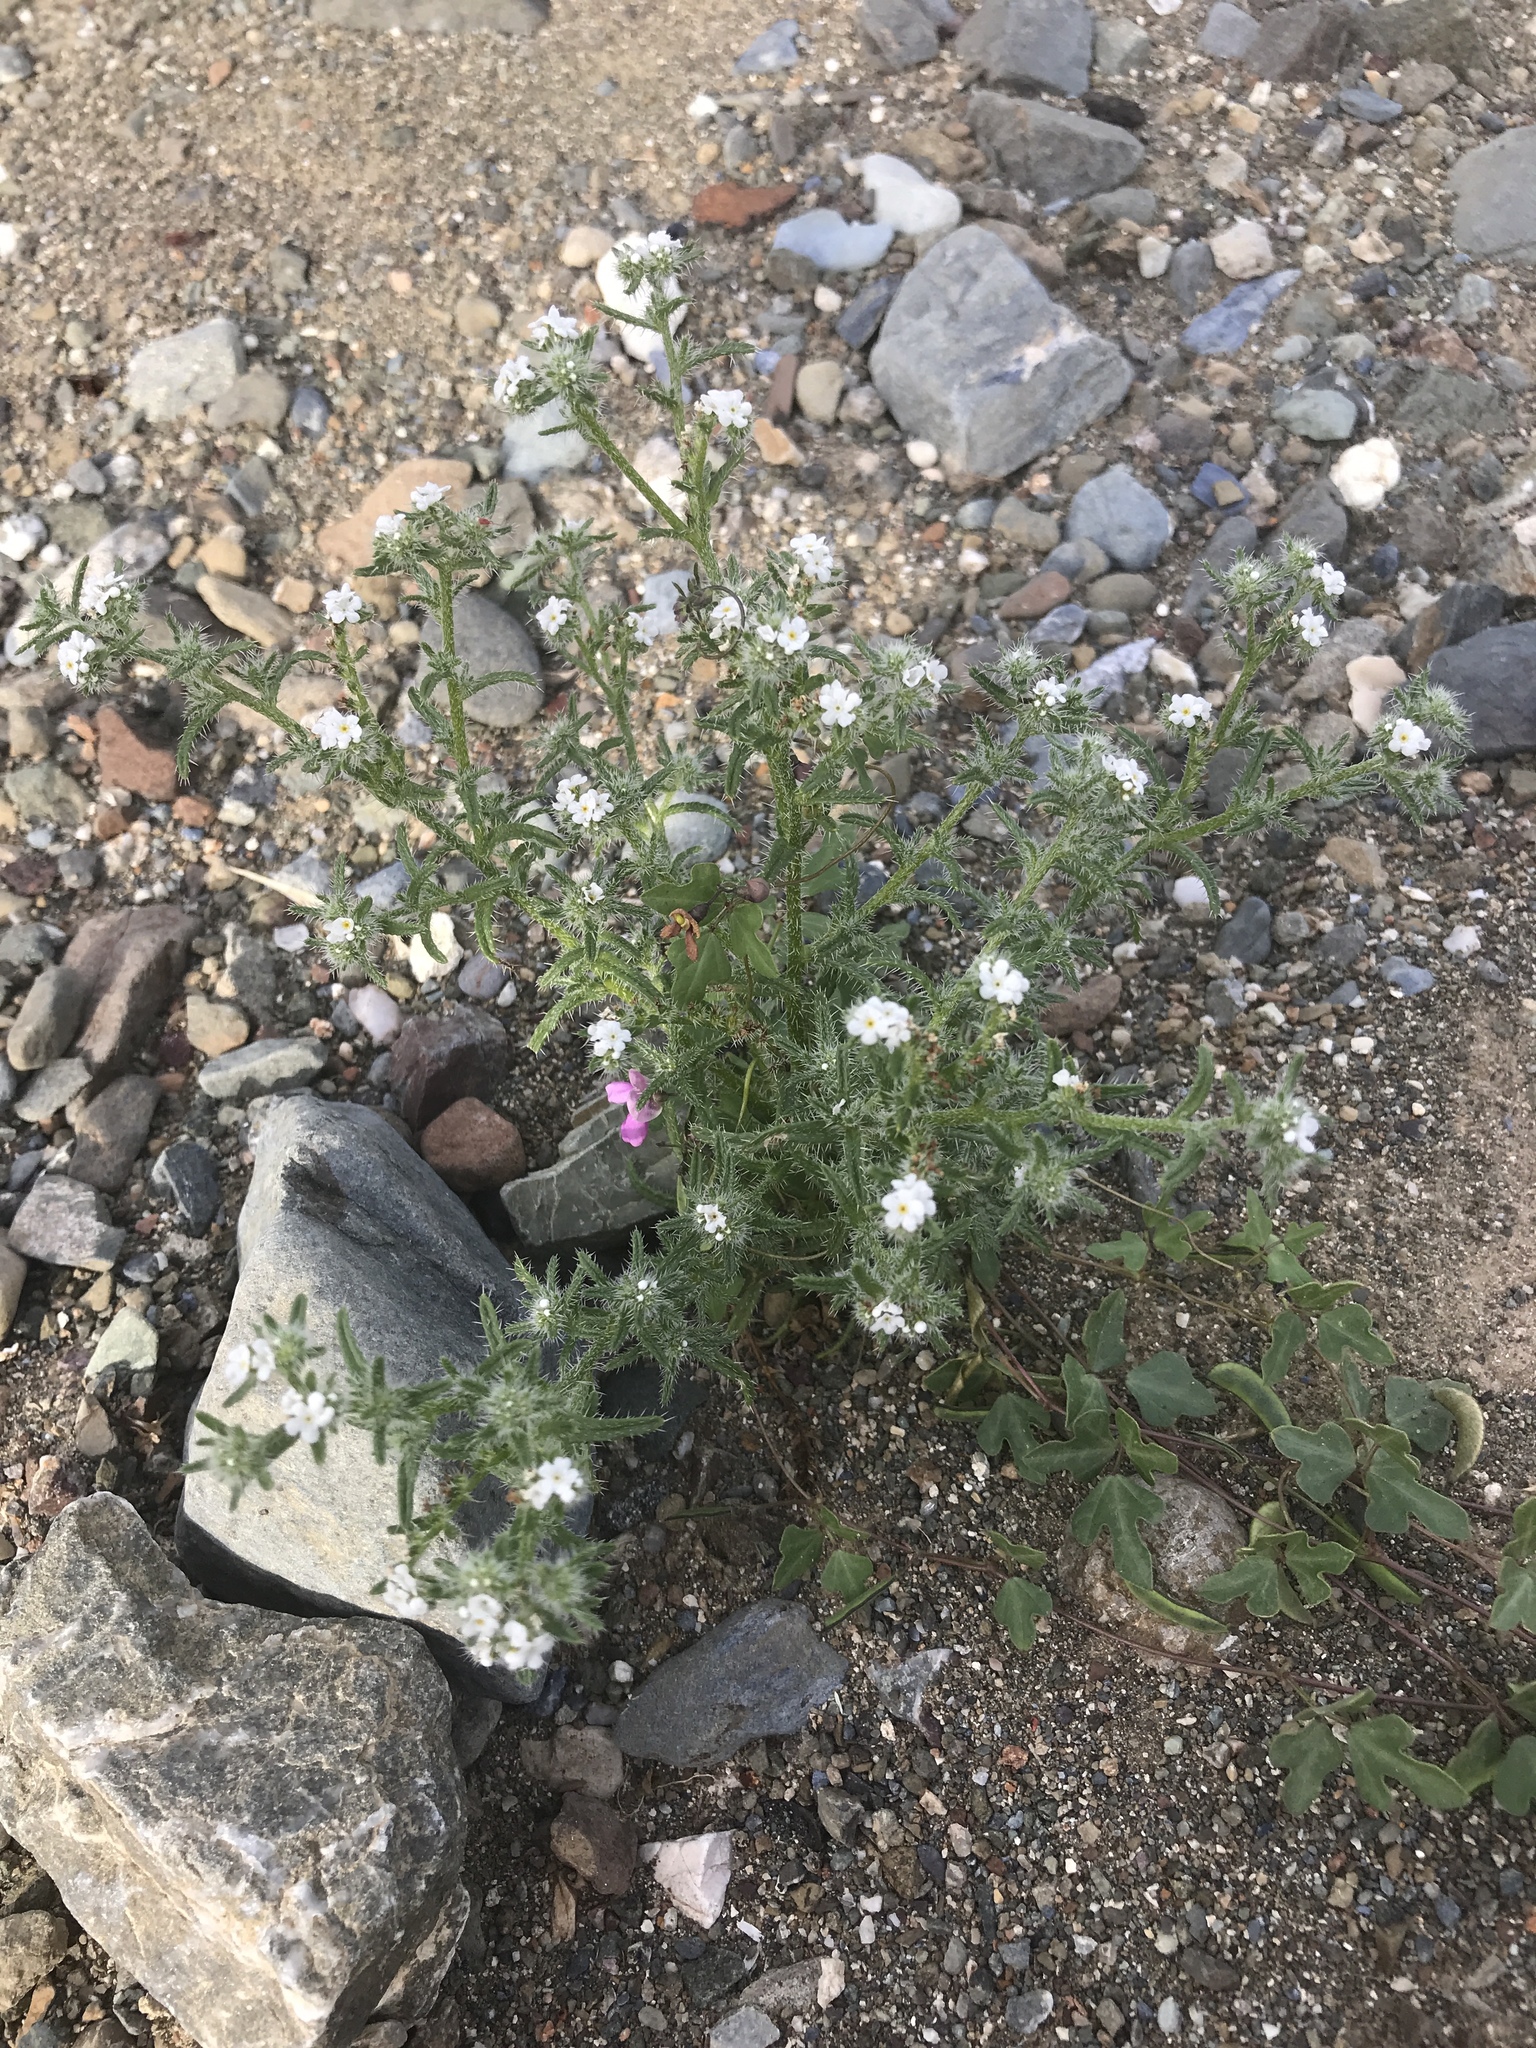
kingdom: Plantae
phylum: Tracheophyta
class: Magnoliopsida
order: Boraginales
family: Boraginaceae
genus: Cryptantha
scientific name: Cryptantha maritima
